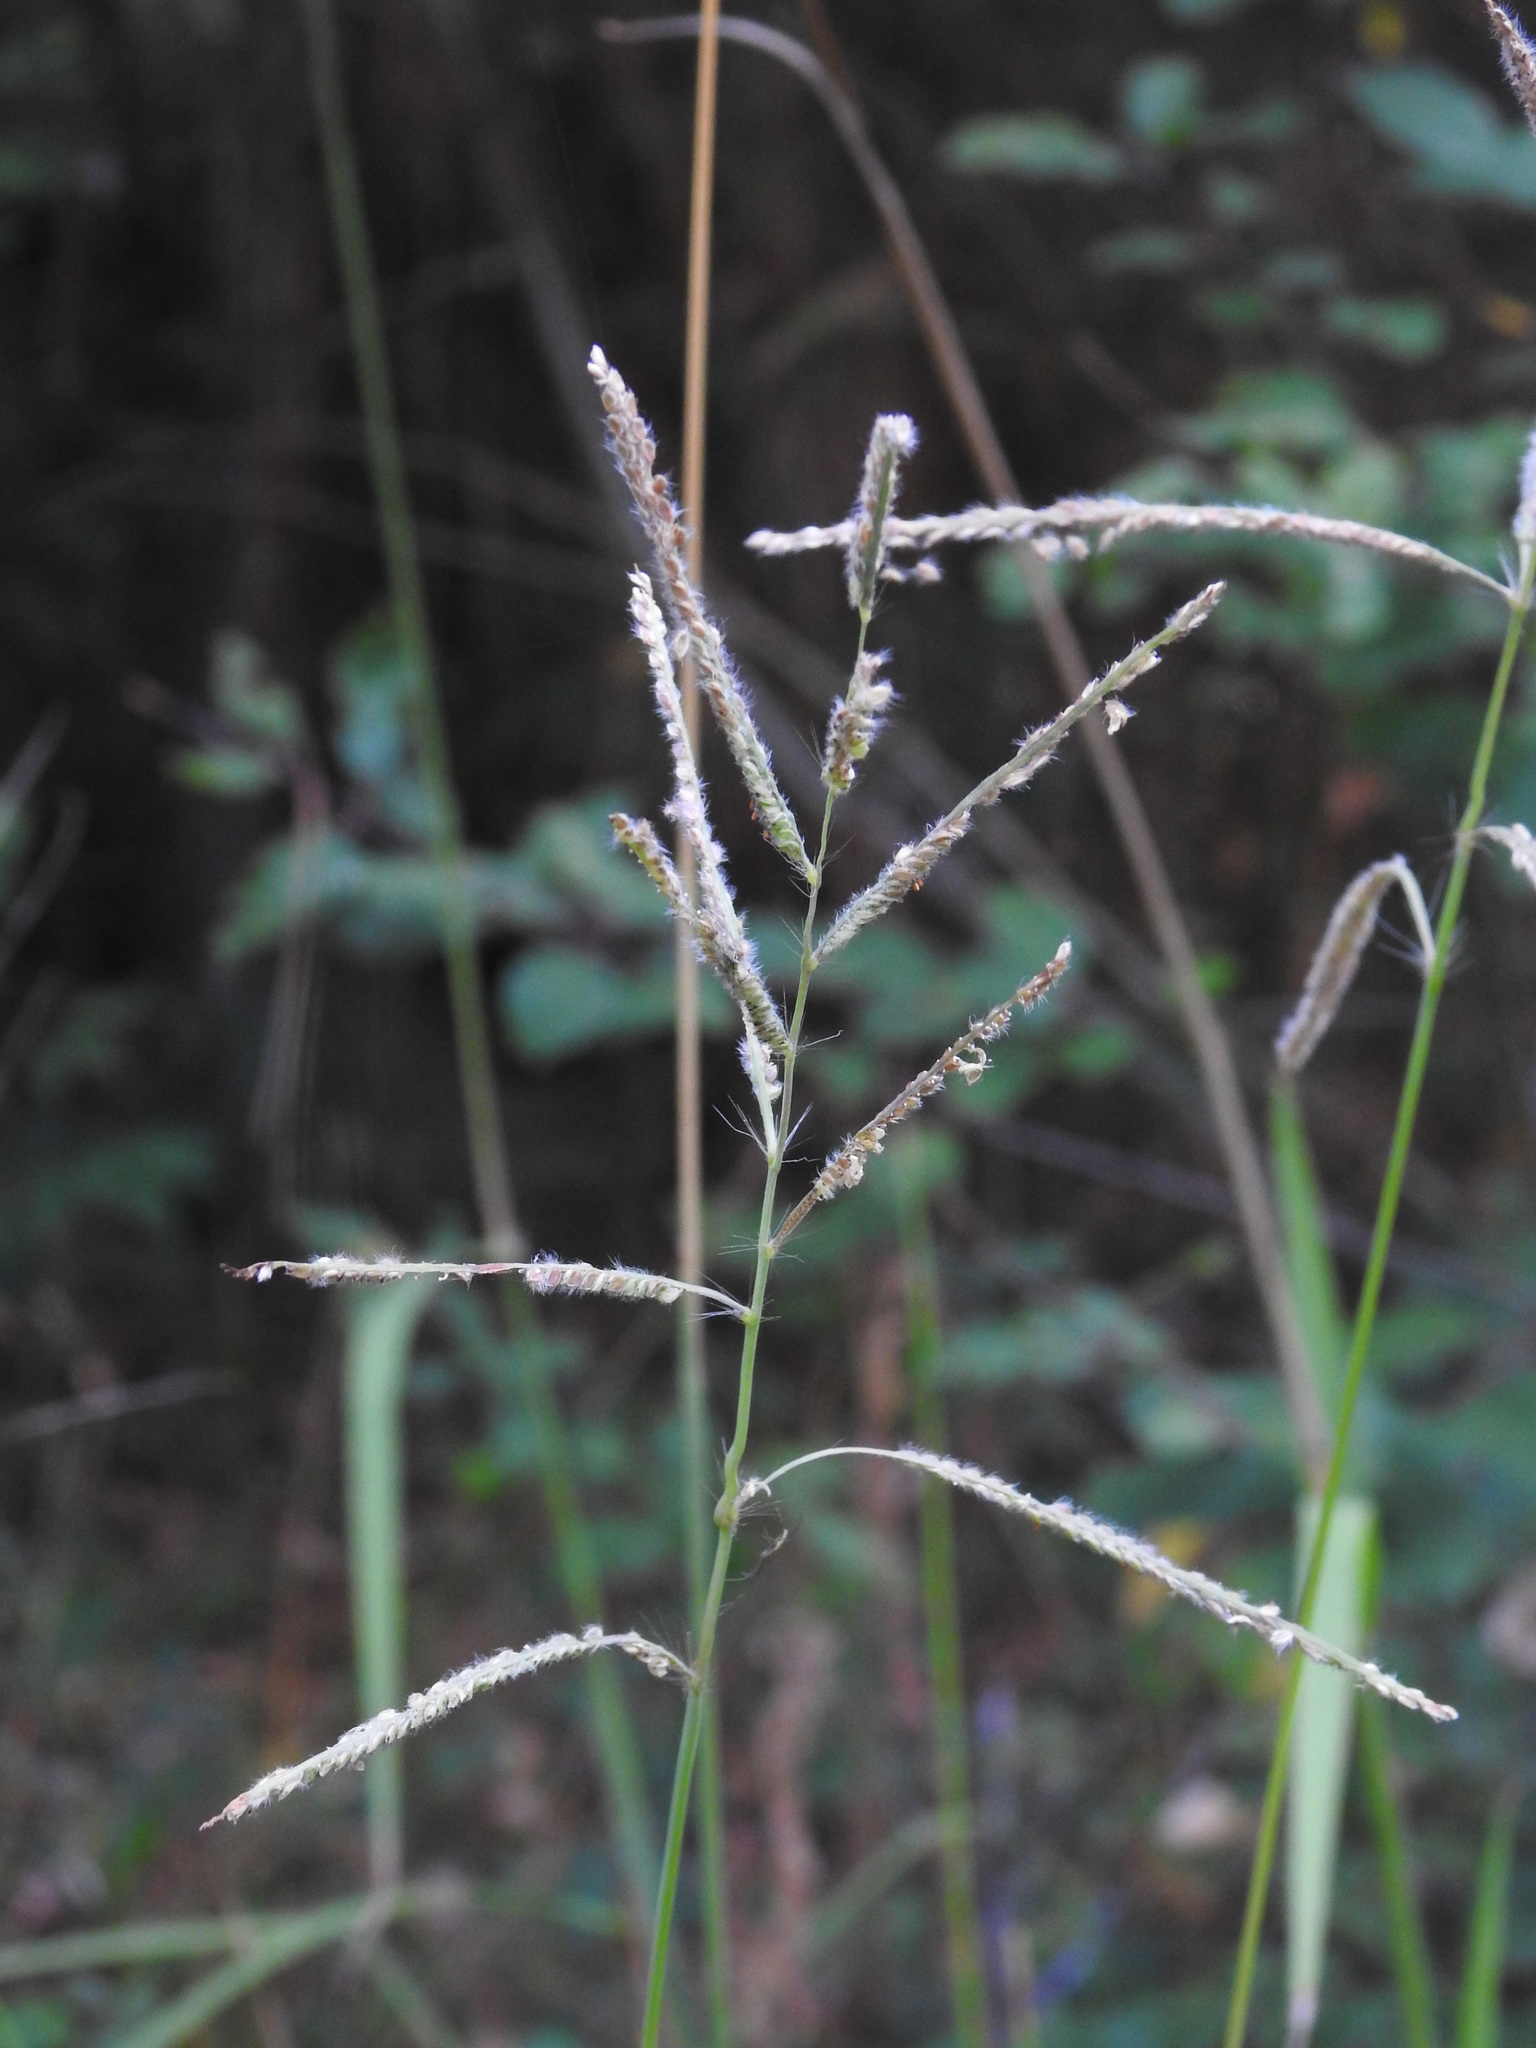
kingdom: Plantae
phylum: Tracheophyta
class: Liliopsida
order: Poales
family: Poaceae
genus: Paspalum
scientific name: Paspalum urvillei
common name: Vasey's grass
